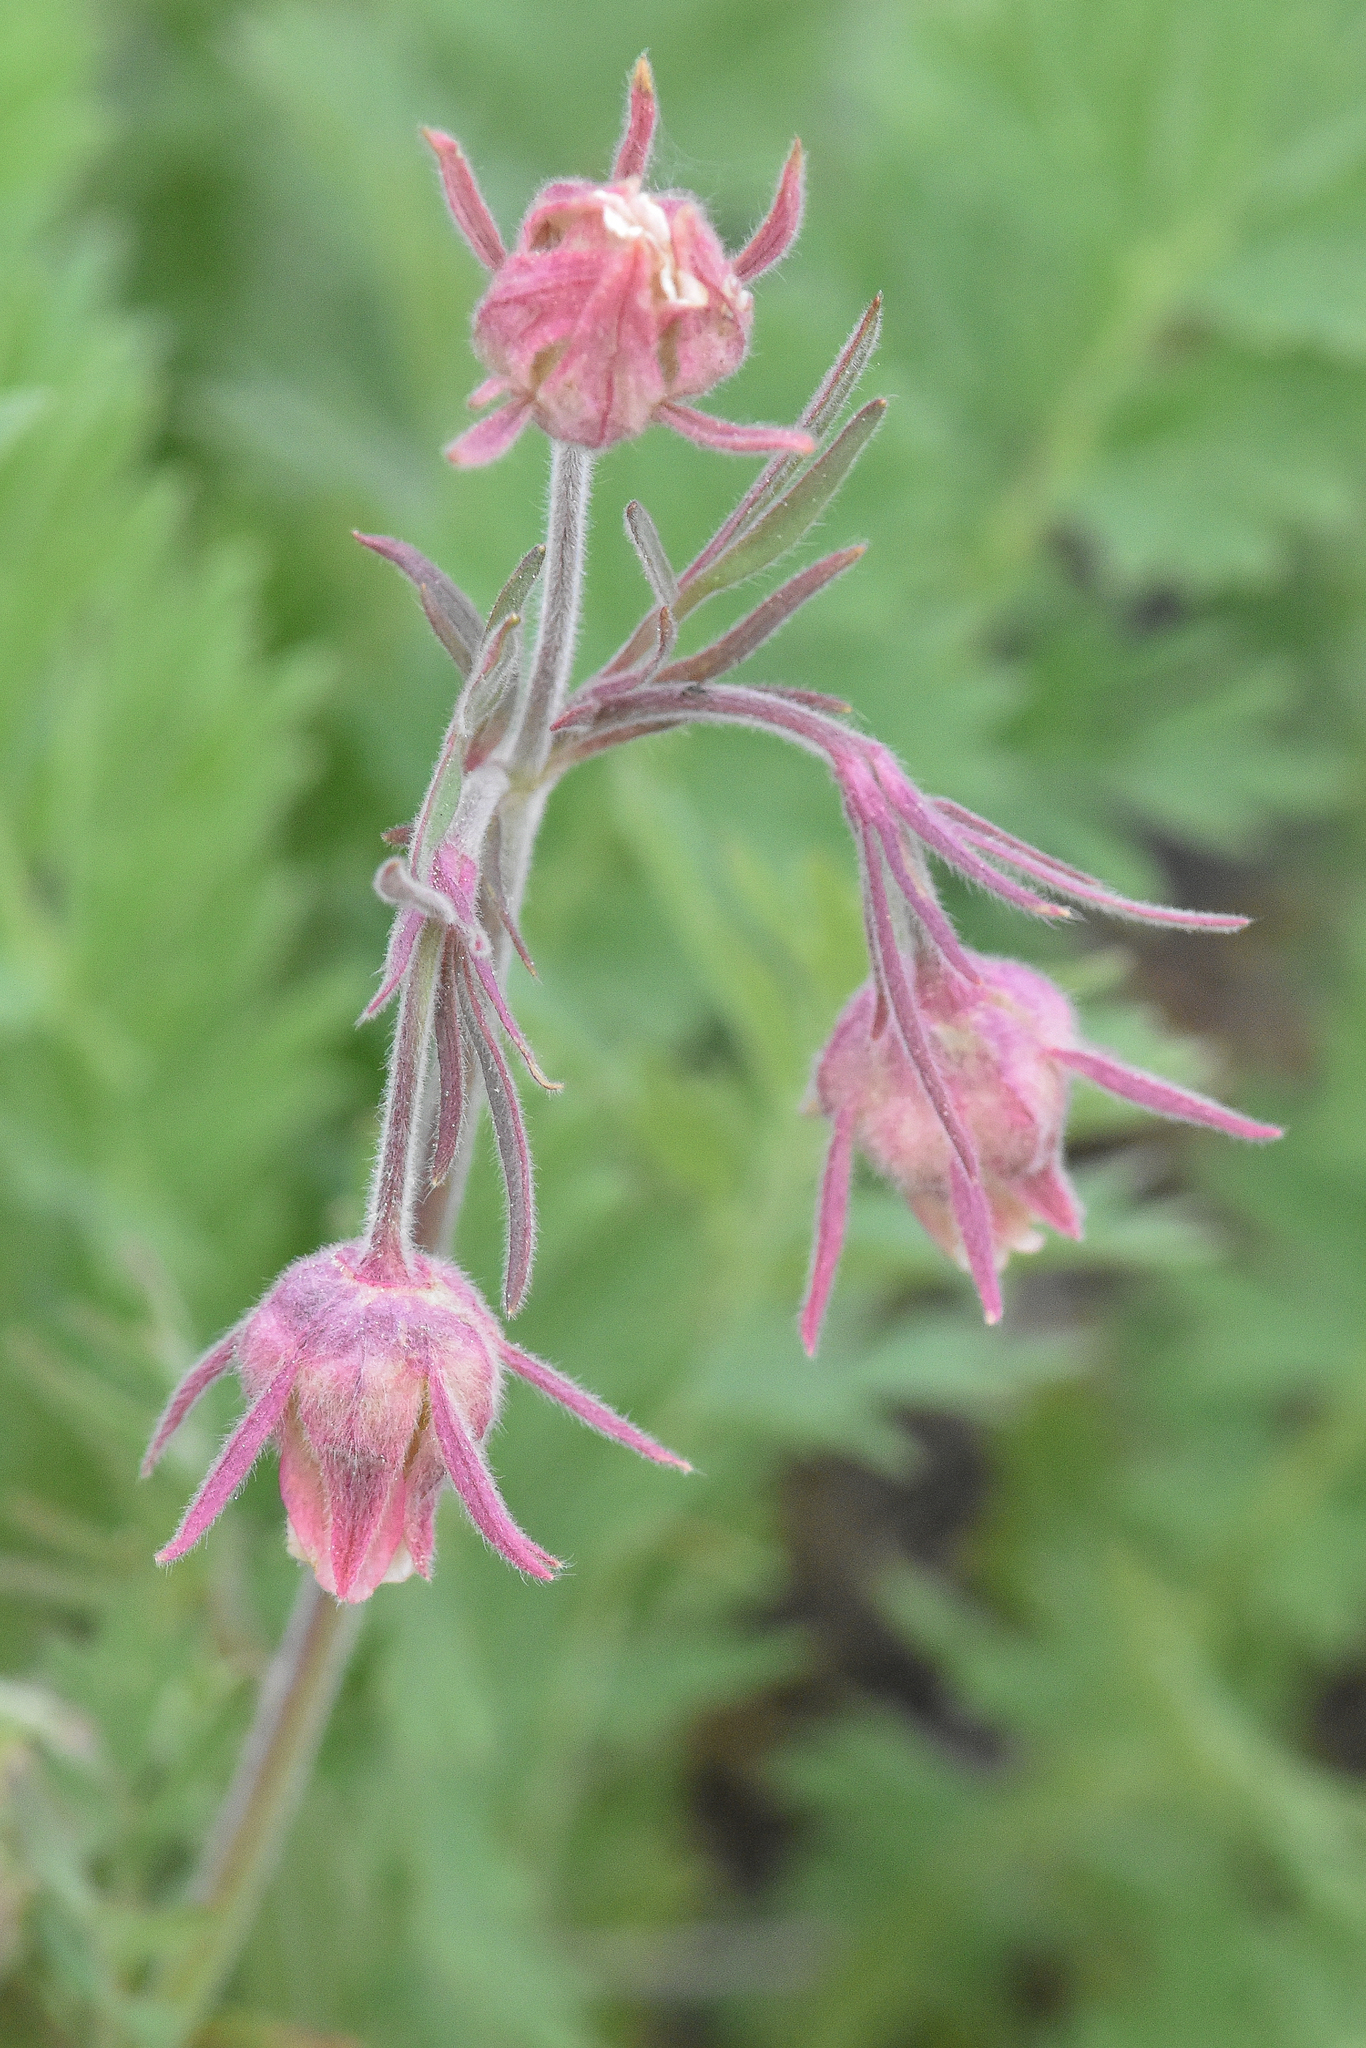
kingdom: Plantae
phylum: Tracheophyta
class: Magnoliopsida
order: Rosales
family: Rosaceae
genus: Geum
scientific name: Geum triflorum
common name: Old man's whiskers
